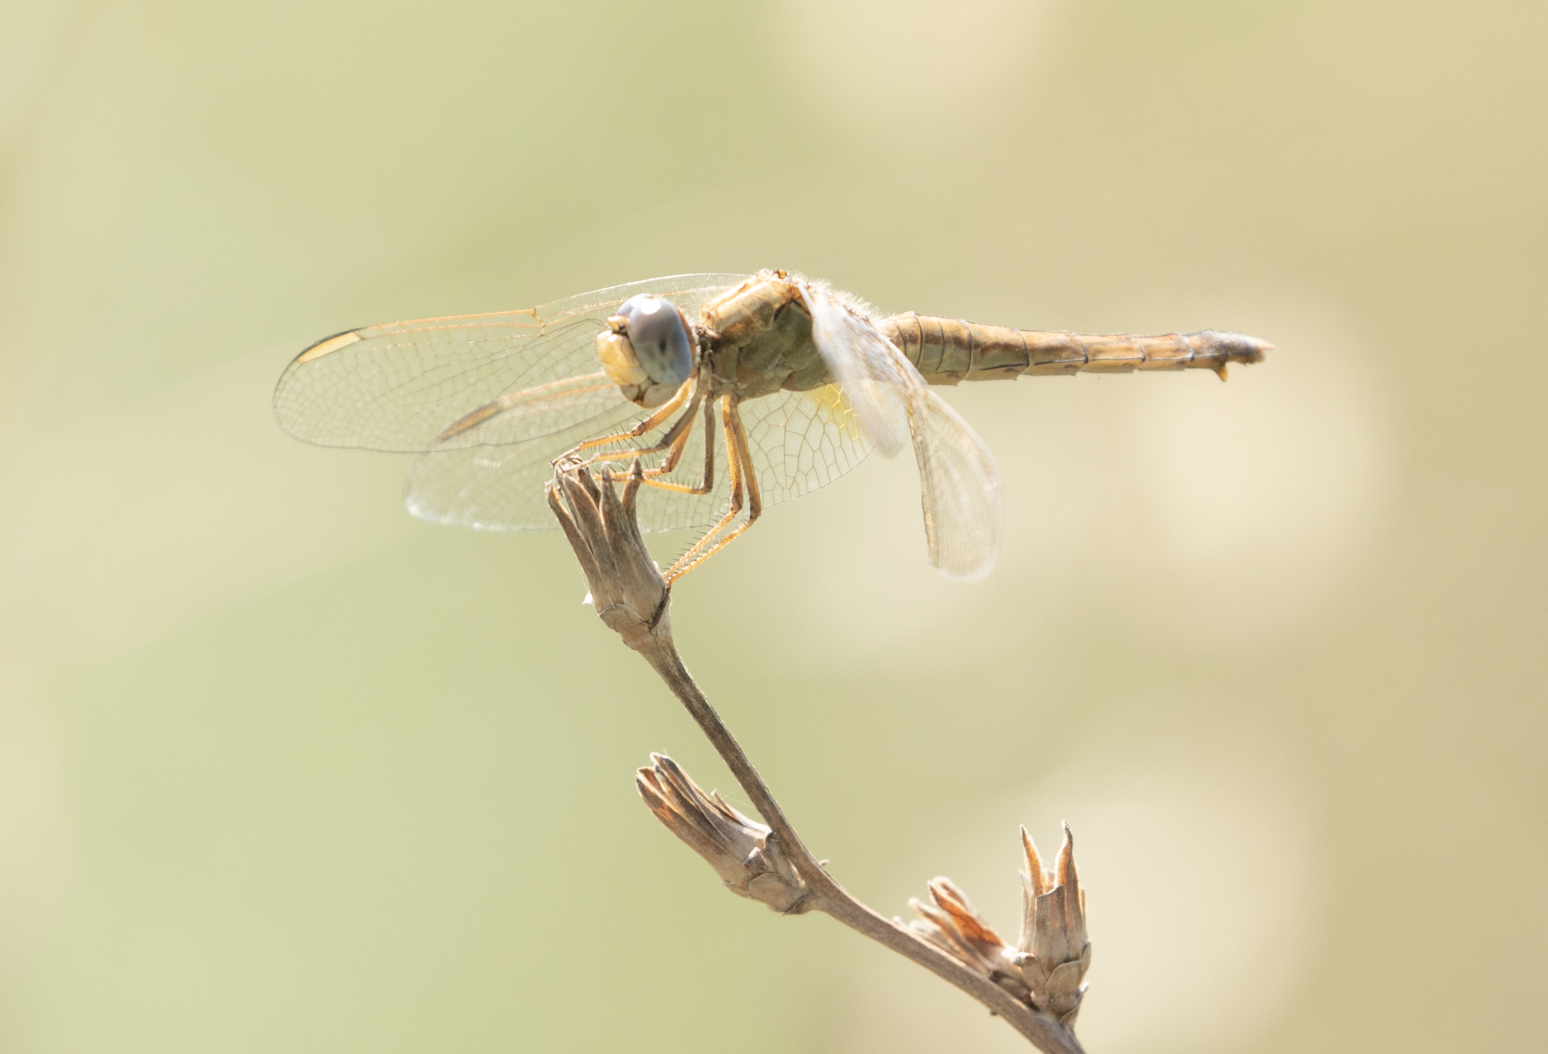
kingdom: Animalia
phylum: Arthropoda
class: Insecta
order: Odonata
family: Libellulidae
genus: Crocothemis
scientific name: Crocothemis erythraea
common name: Scarlet dragonfly
